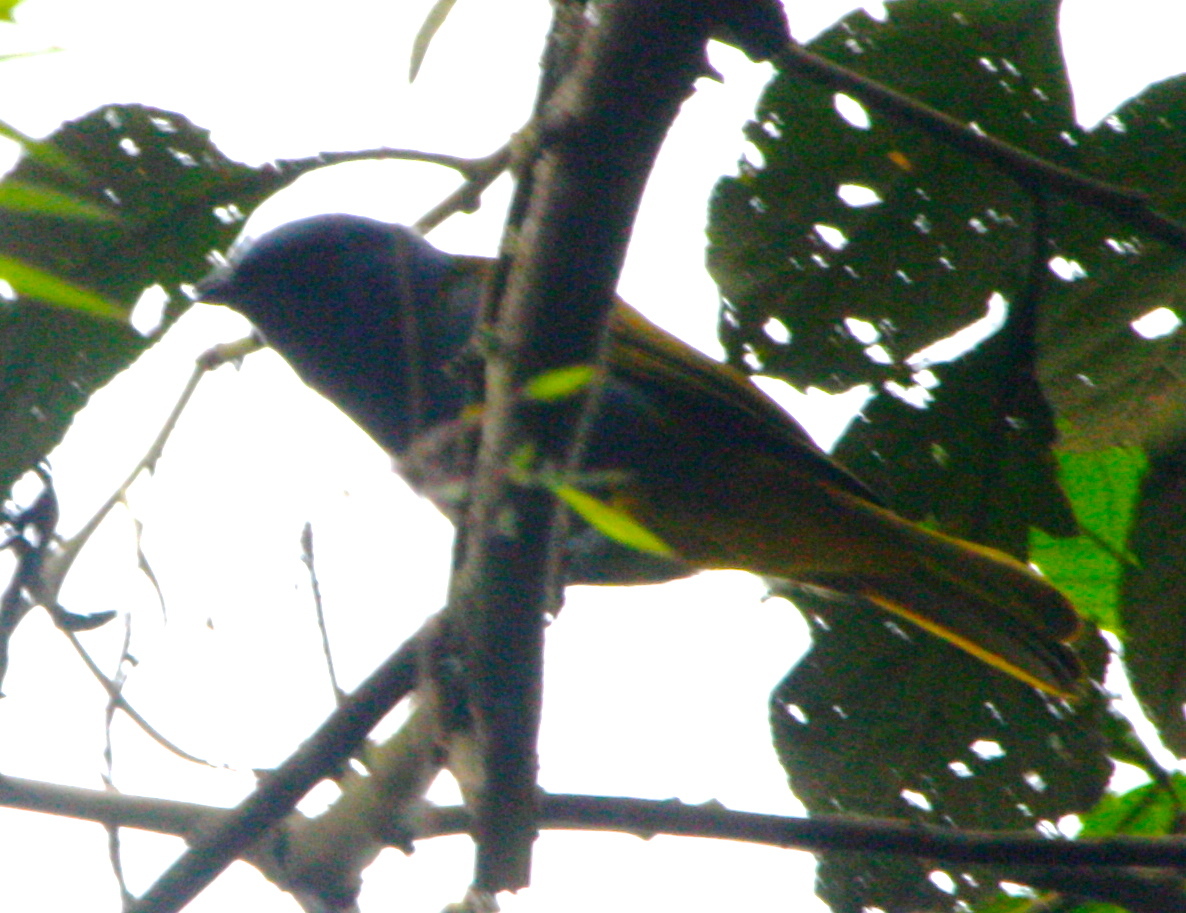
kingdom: Animalia
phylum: Chordata
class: Aves
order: Passeriformes
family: Thraupidae
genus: Sporathraupis
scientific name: Sporathraupis cyanocephala
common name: Blue-capped tanager
